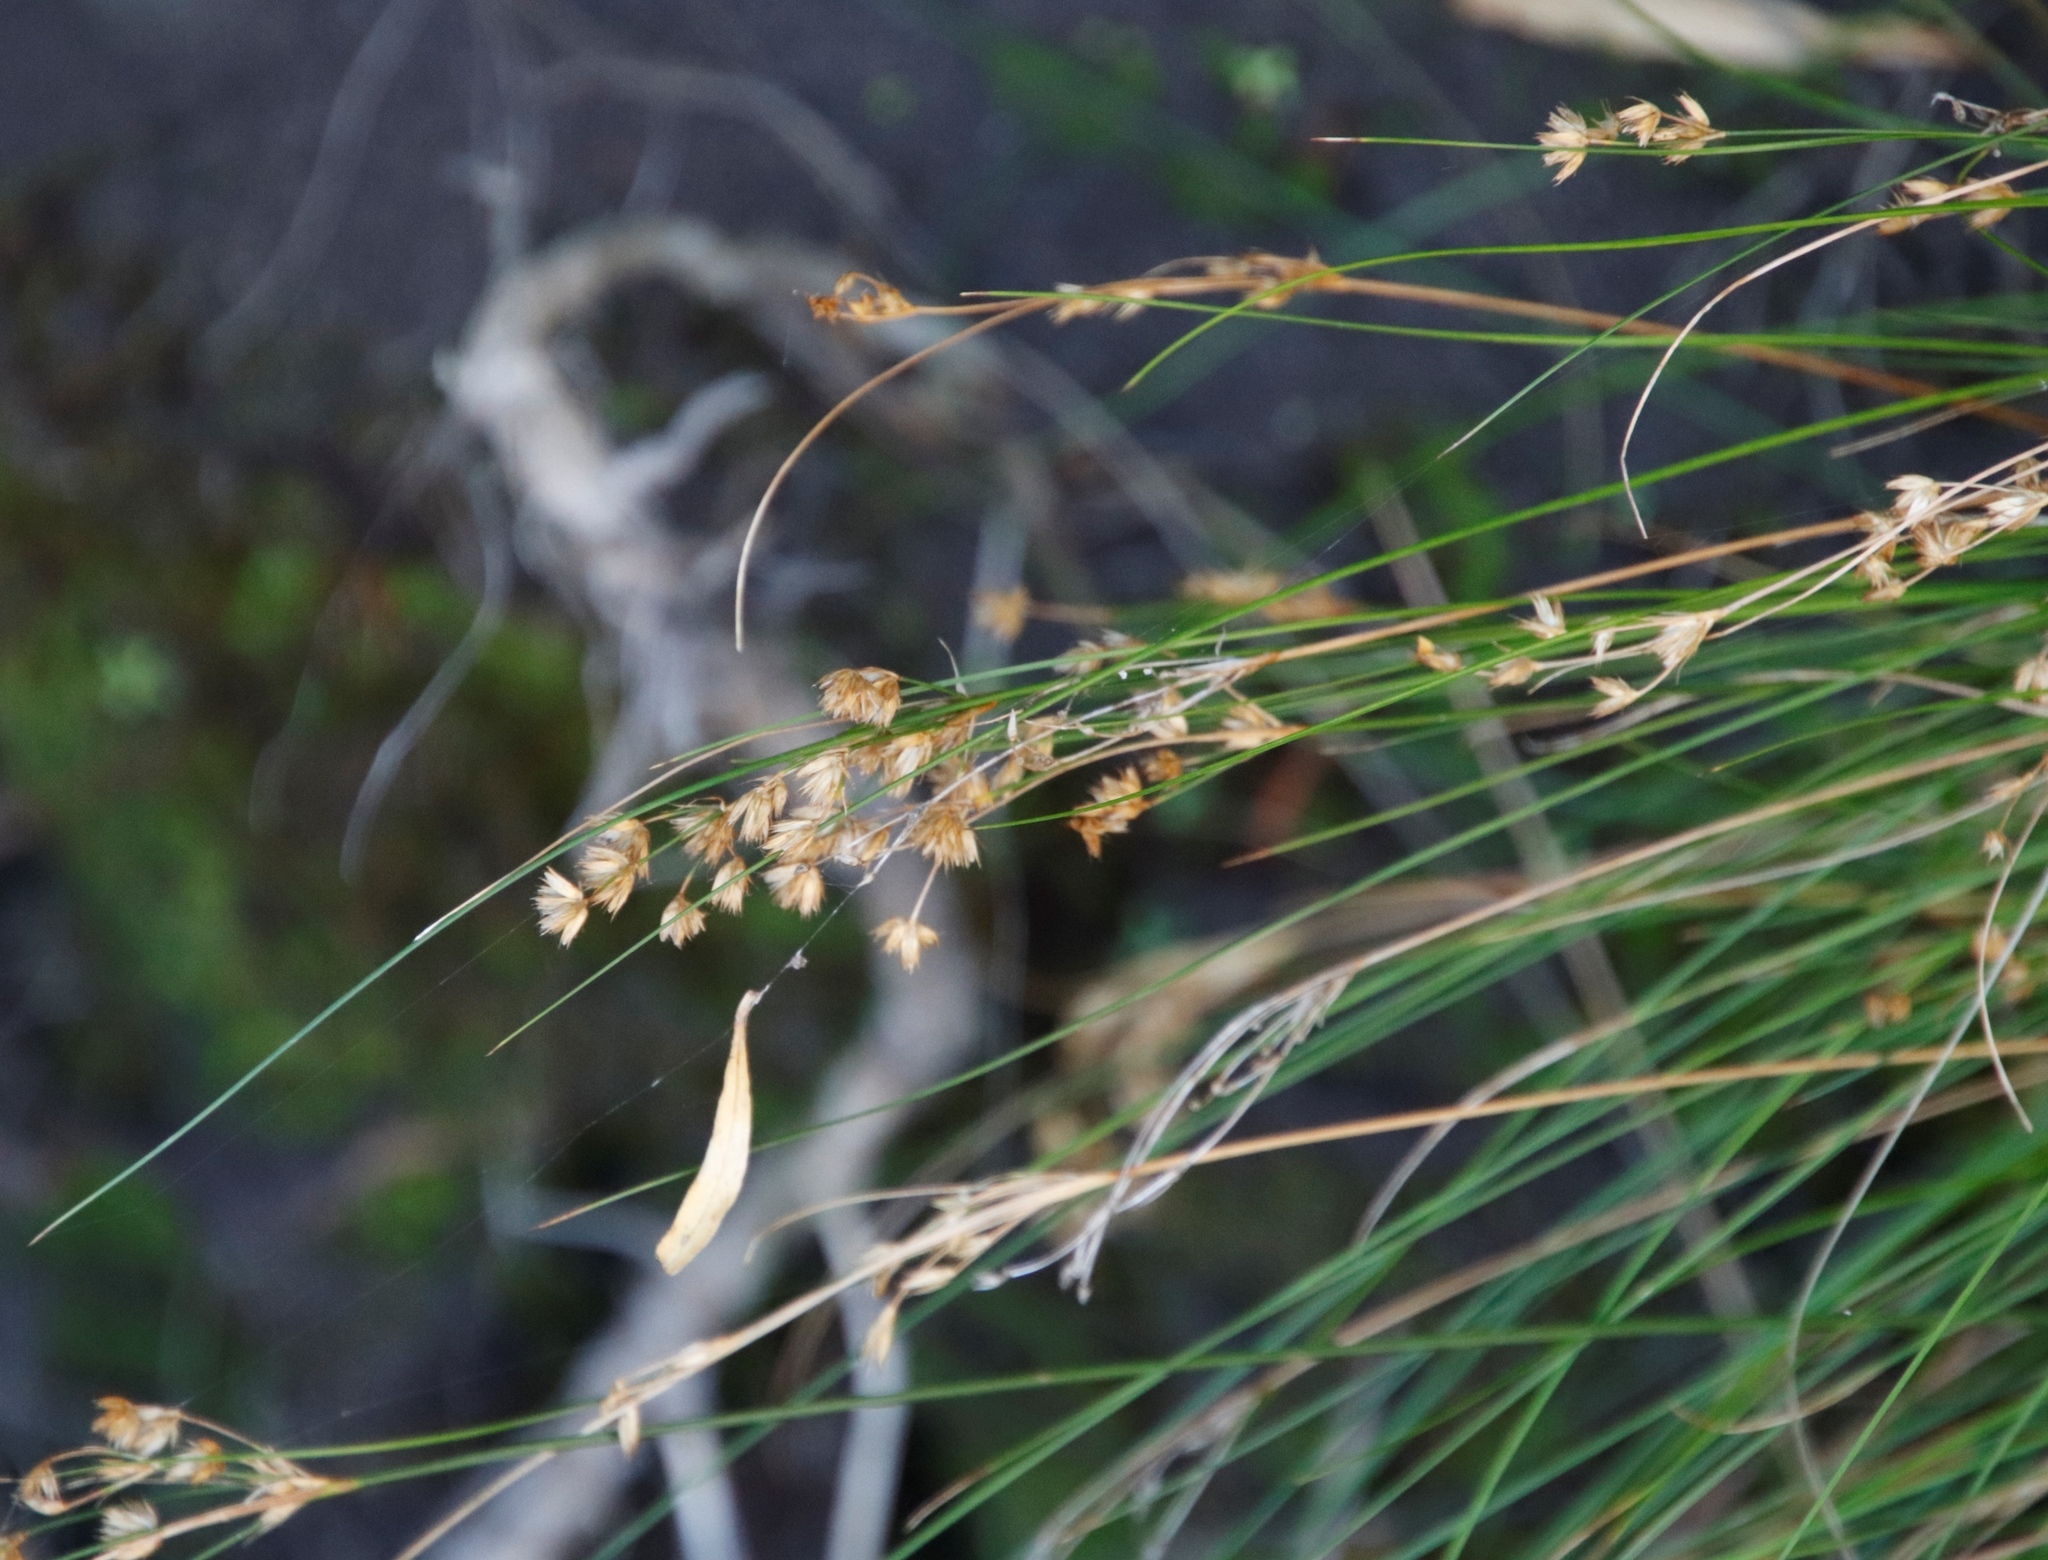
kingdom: Plantae
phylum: Tracheophyta
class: Liliopsida
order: Poales
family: Juncaceae
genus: Juncus
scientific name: Juncus capensis
